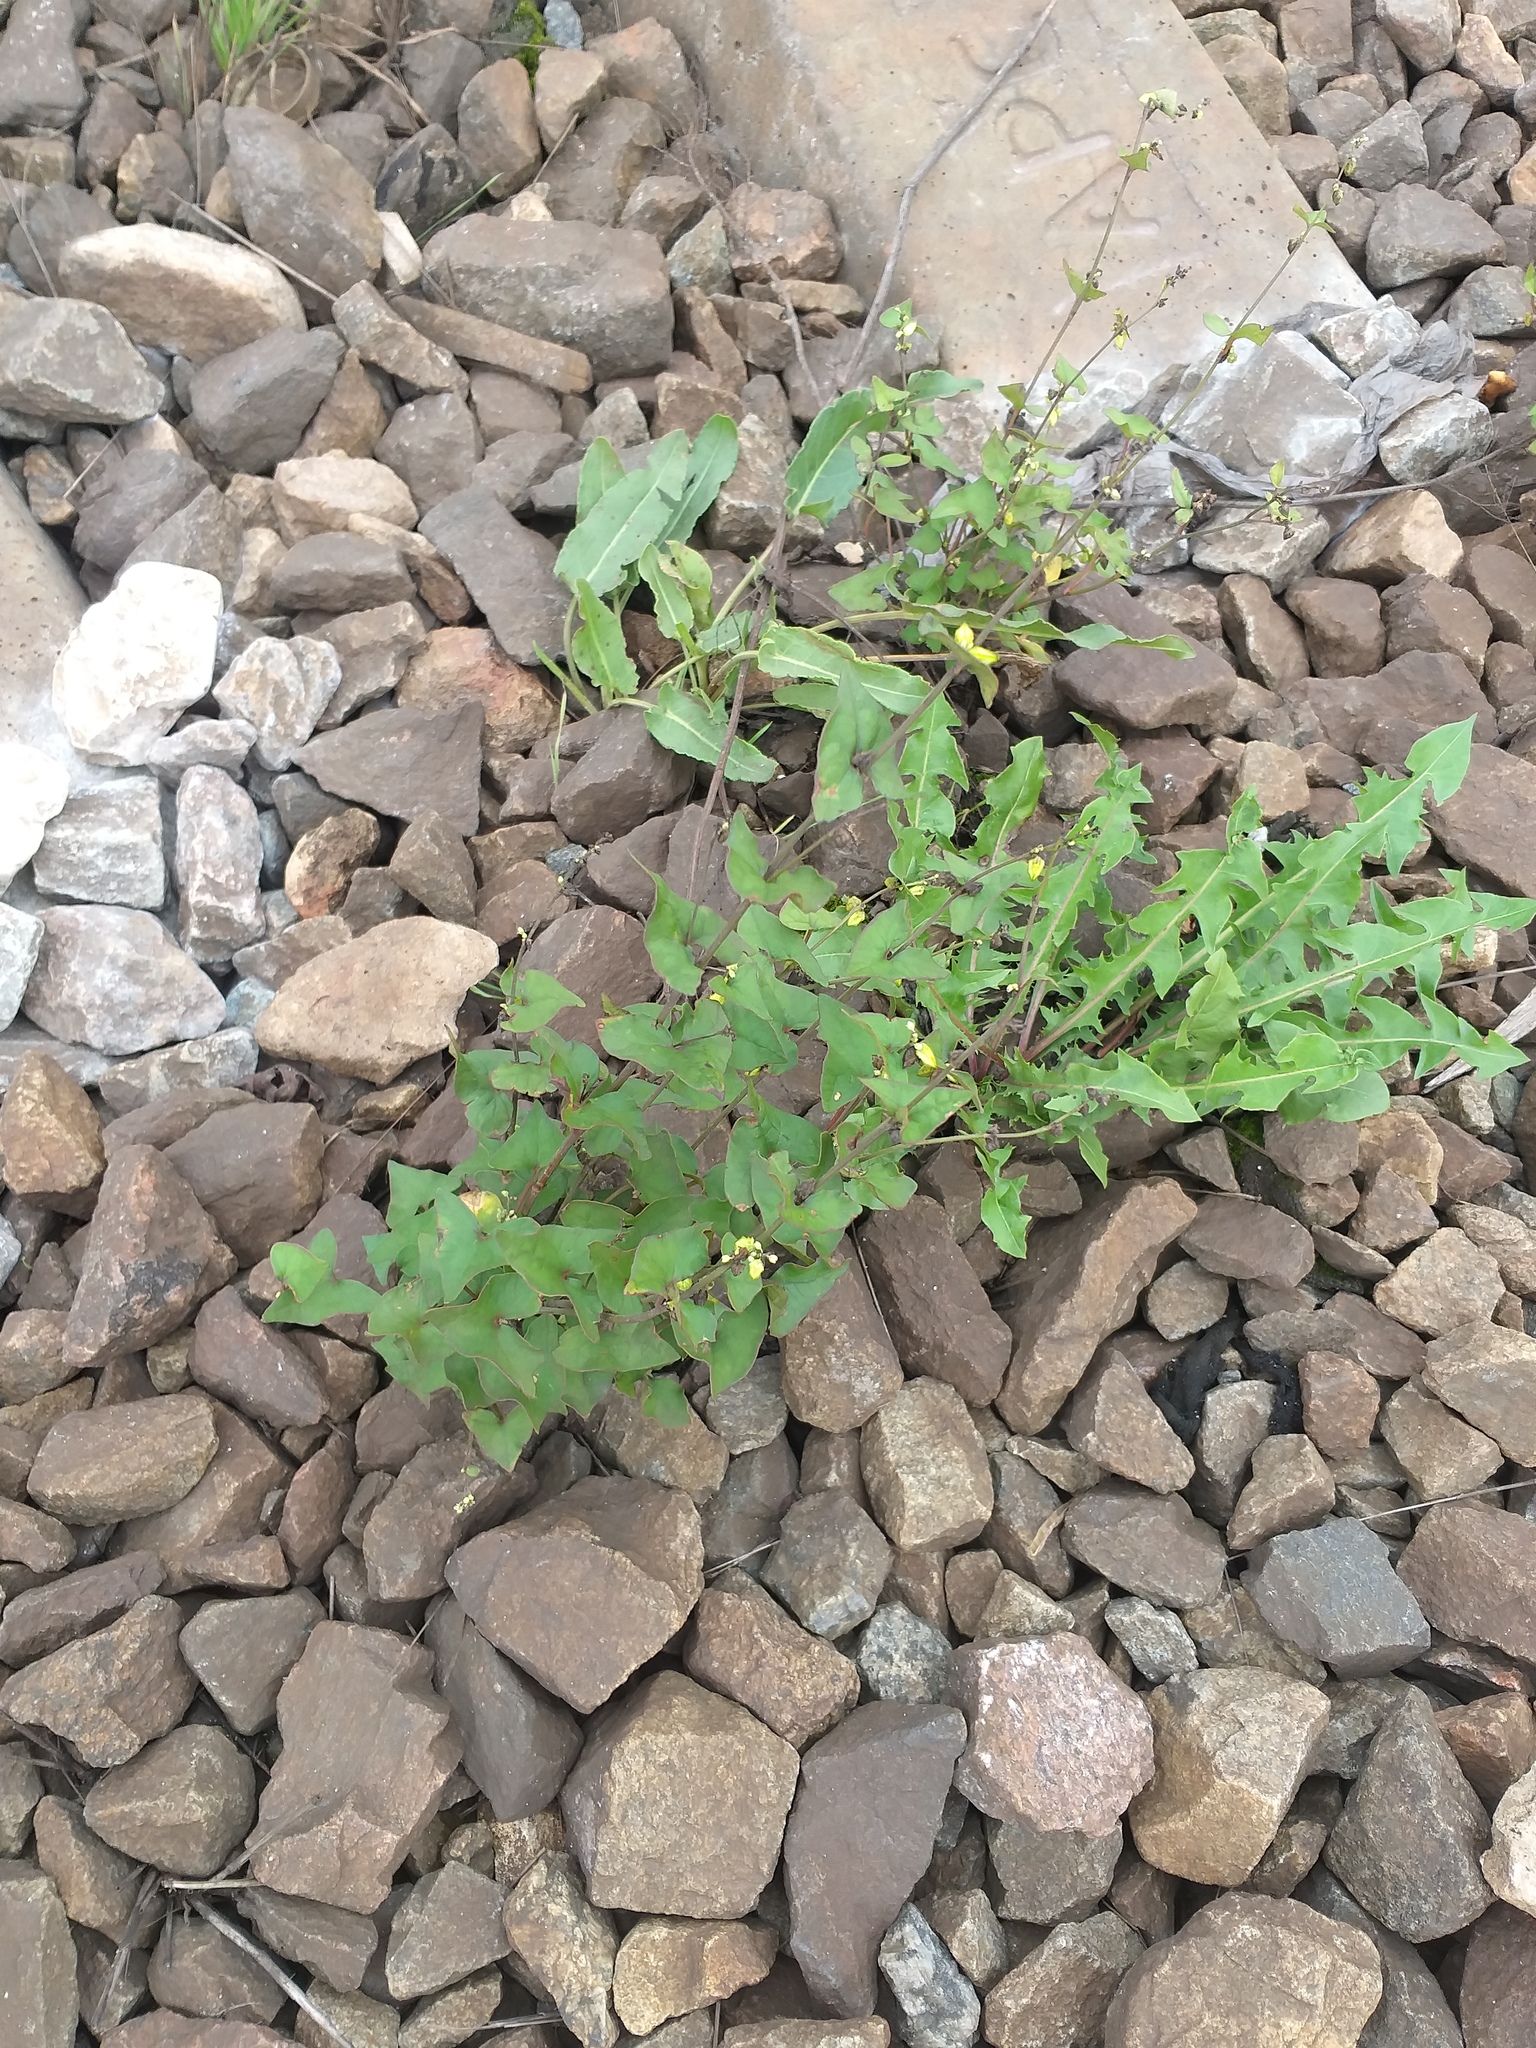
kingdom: Plantae
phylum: Tracheophyta
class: Magnoliopsida
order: Caryophyllales
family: Polygonaceae
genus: Fagopyrum
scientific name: Fagopyrum tataricum
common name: Green buckwheat
